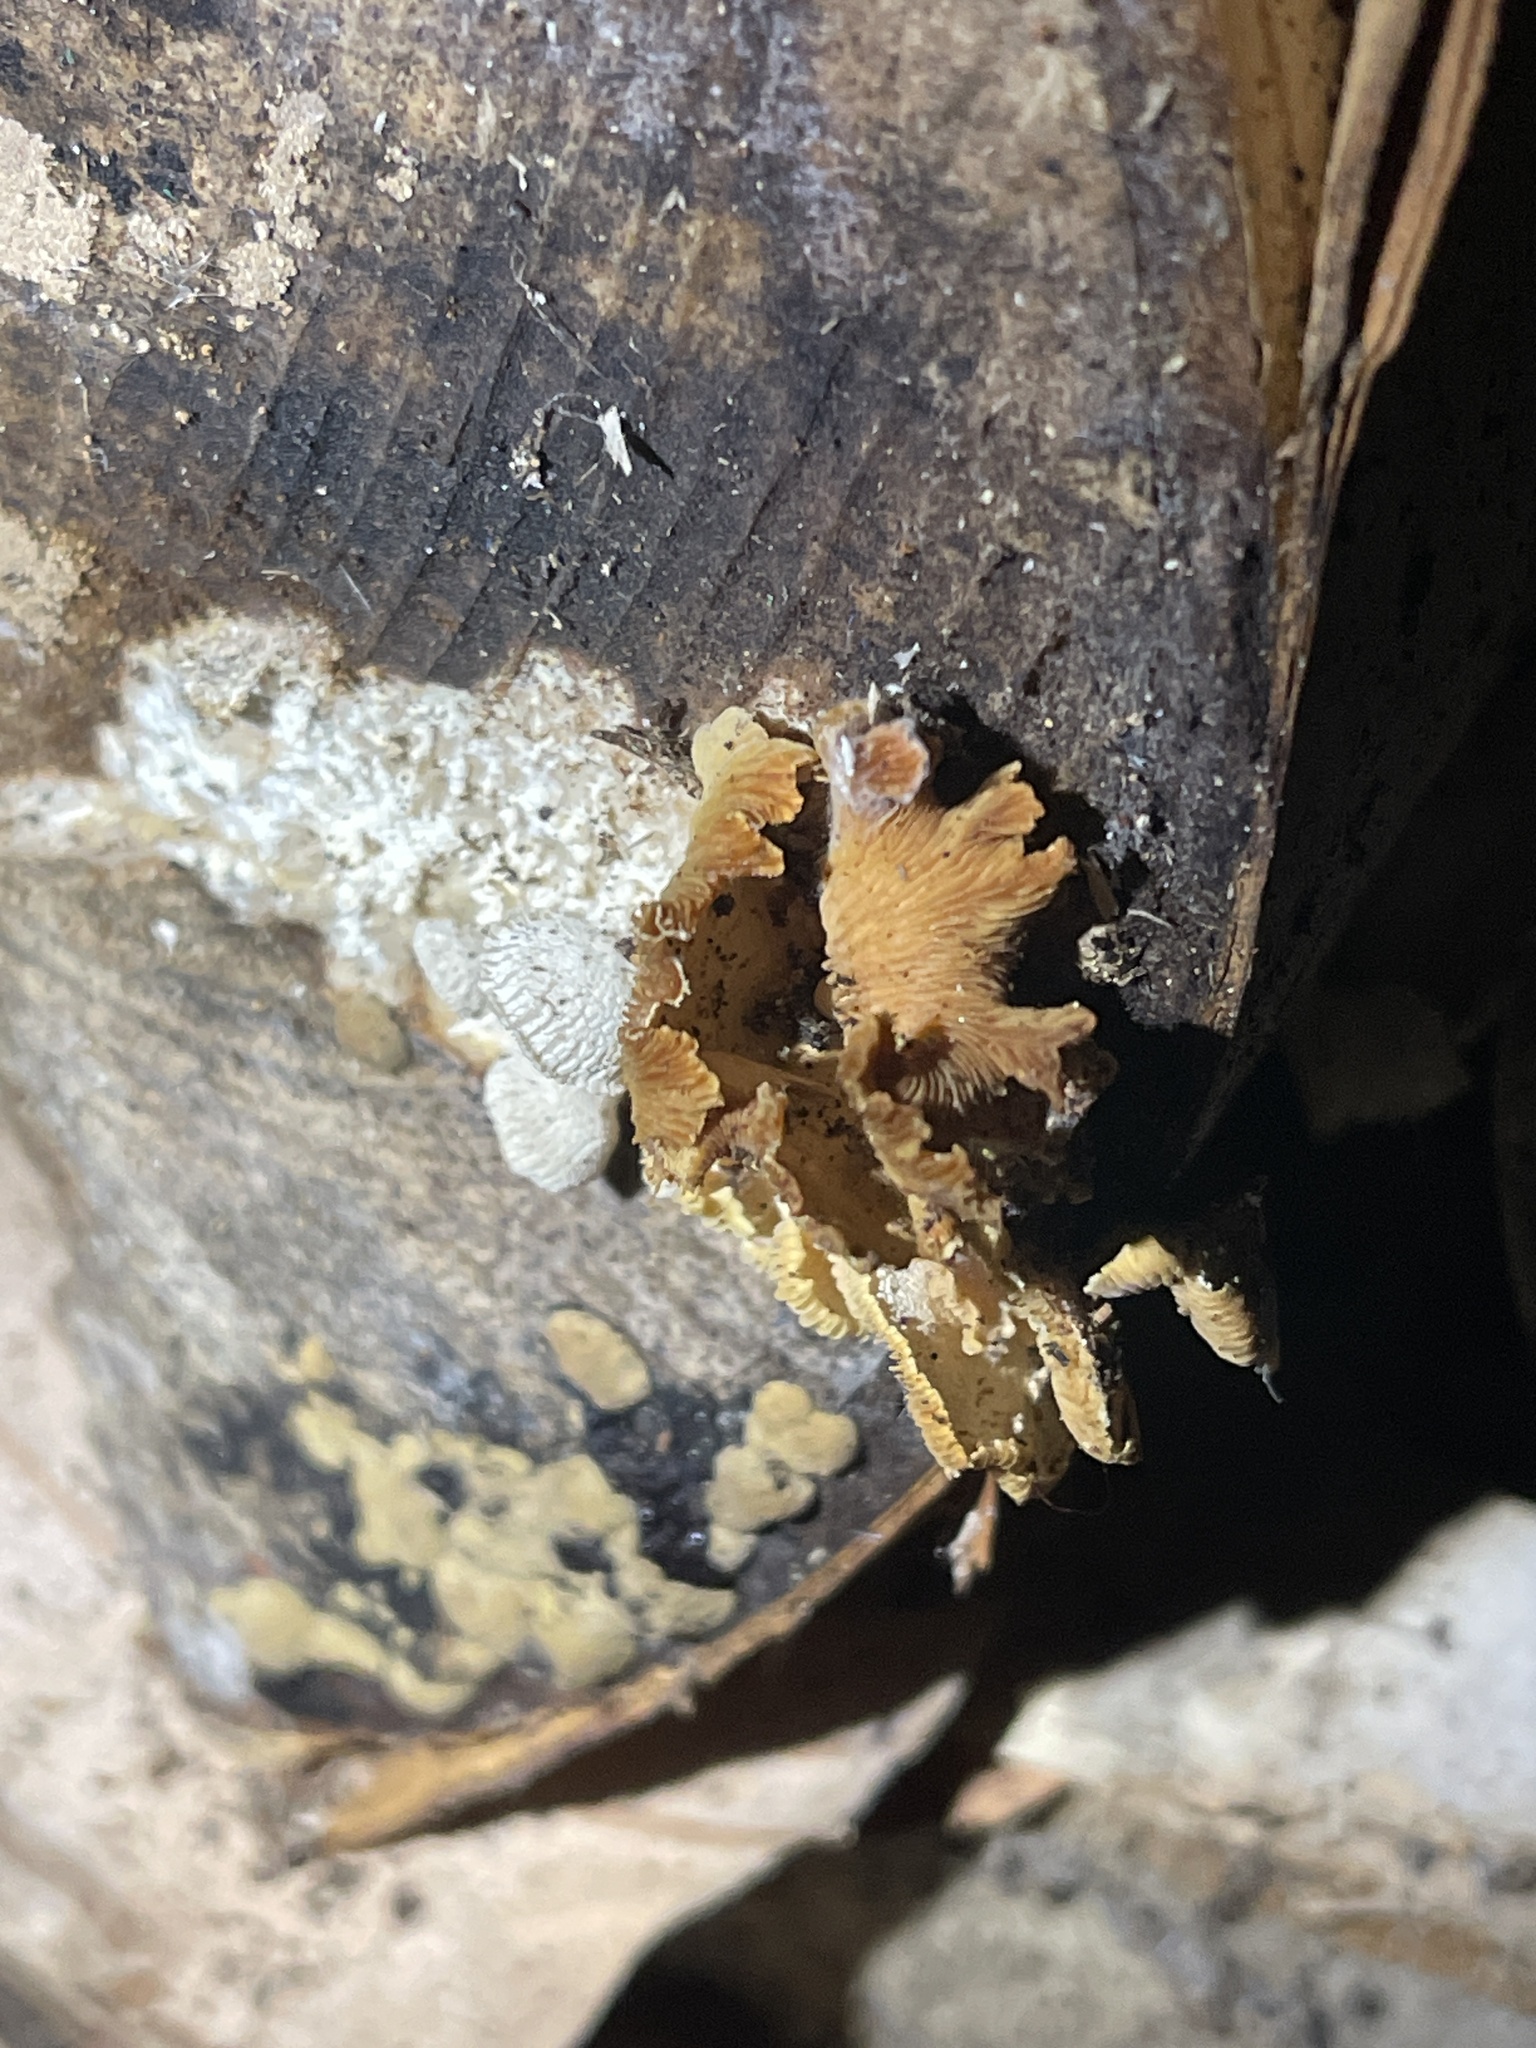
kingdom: Fungi
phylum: Basidiomycota
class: Agaricomycetes
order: Agaricales
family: Mycenaceae
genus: Panellus
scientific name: Panellus stipticus
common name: Bitter oysterling
